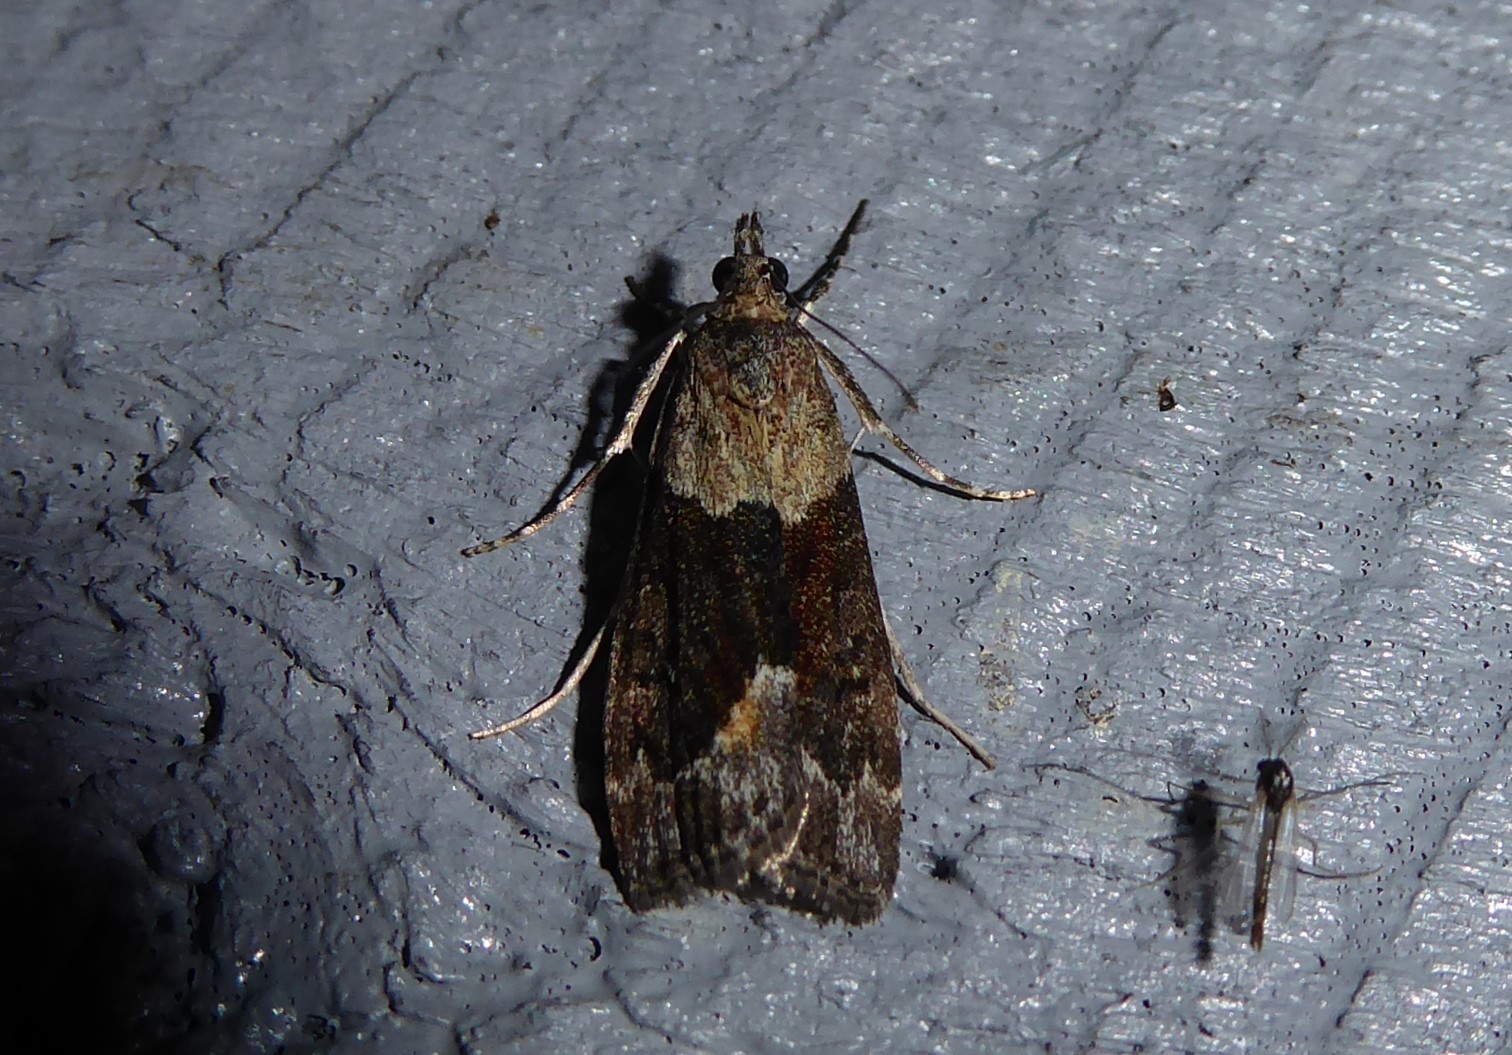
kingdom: Animalia
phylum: Arthropoda
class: Insecta
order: Lepidoptera
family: Crambidae
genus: Eudonia
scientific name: Eudonia submarginalis
